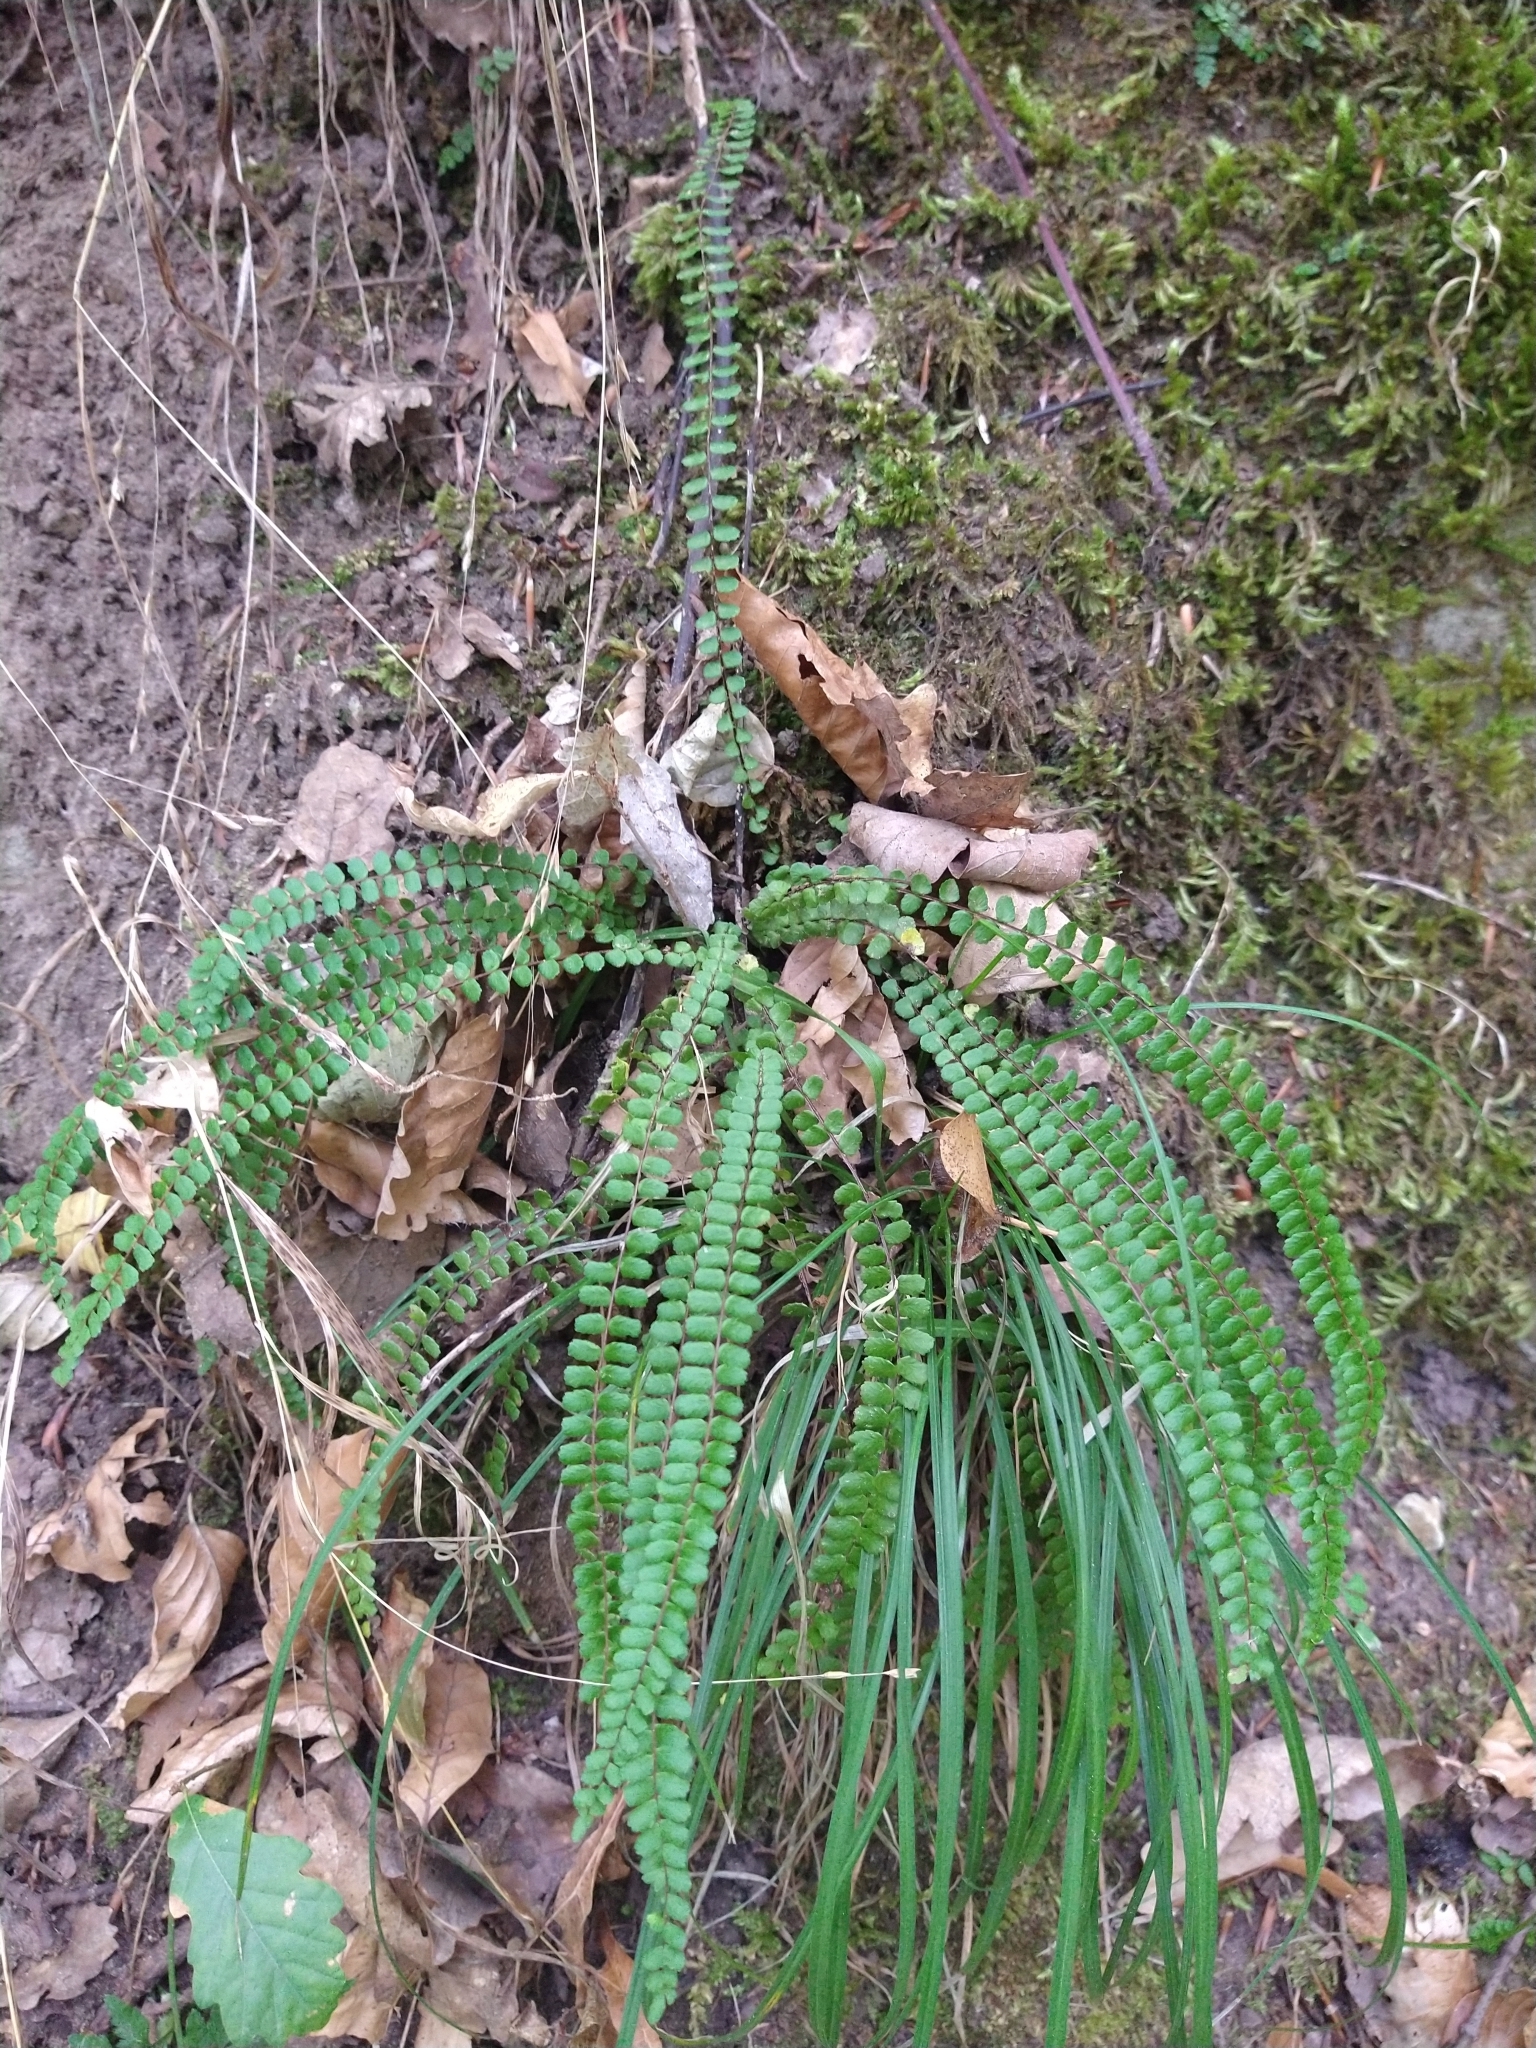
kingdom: Plantae
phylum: Tracheophyta
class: Polypodiopsida
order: Polypodiales
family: Aspleniaceae
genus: Asplenium
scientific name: Asplenium trichomanes
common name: Maidenhair spleenwort
